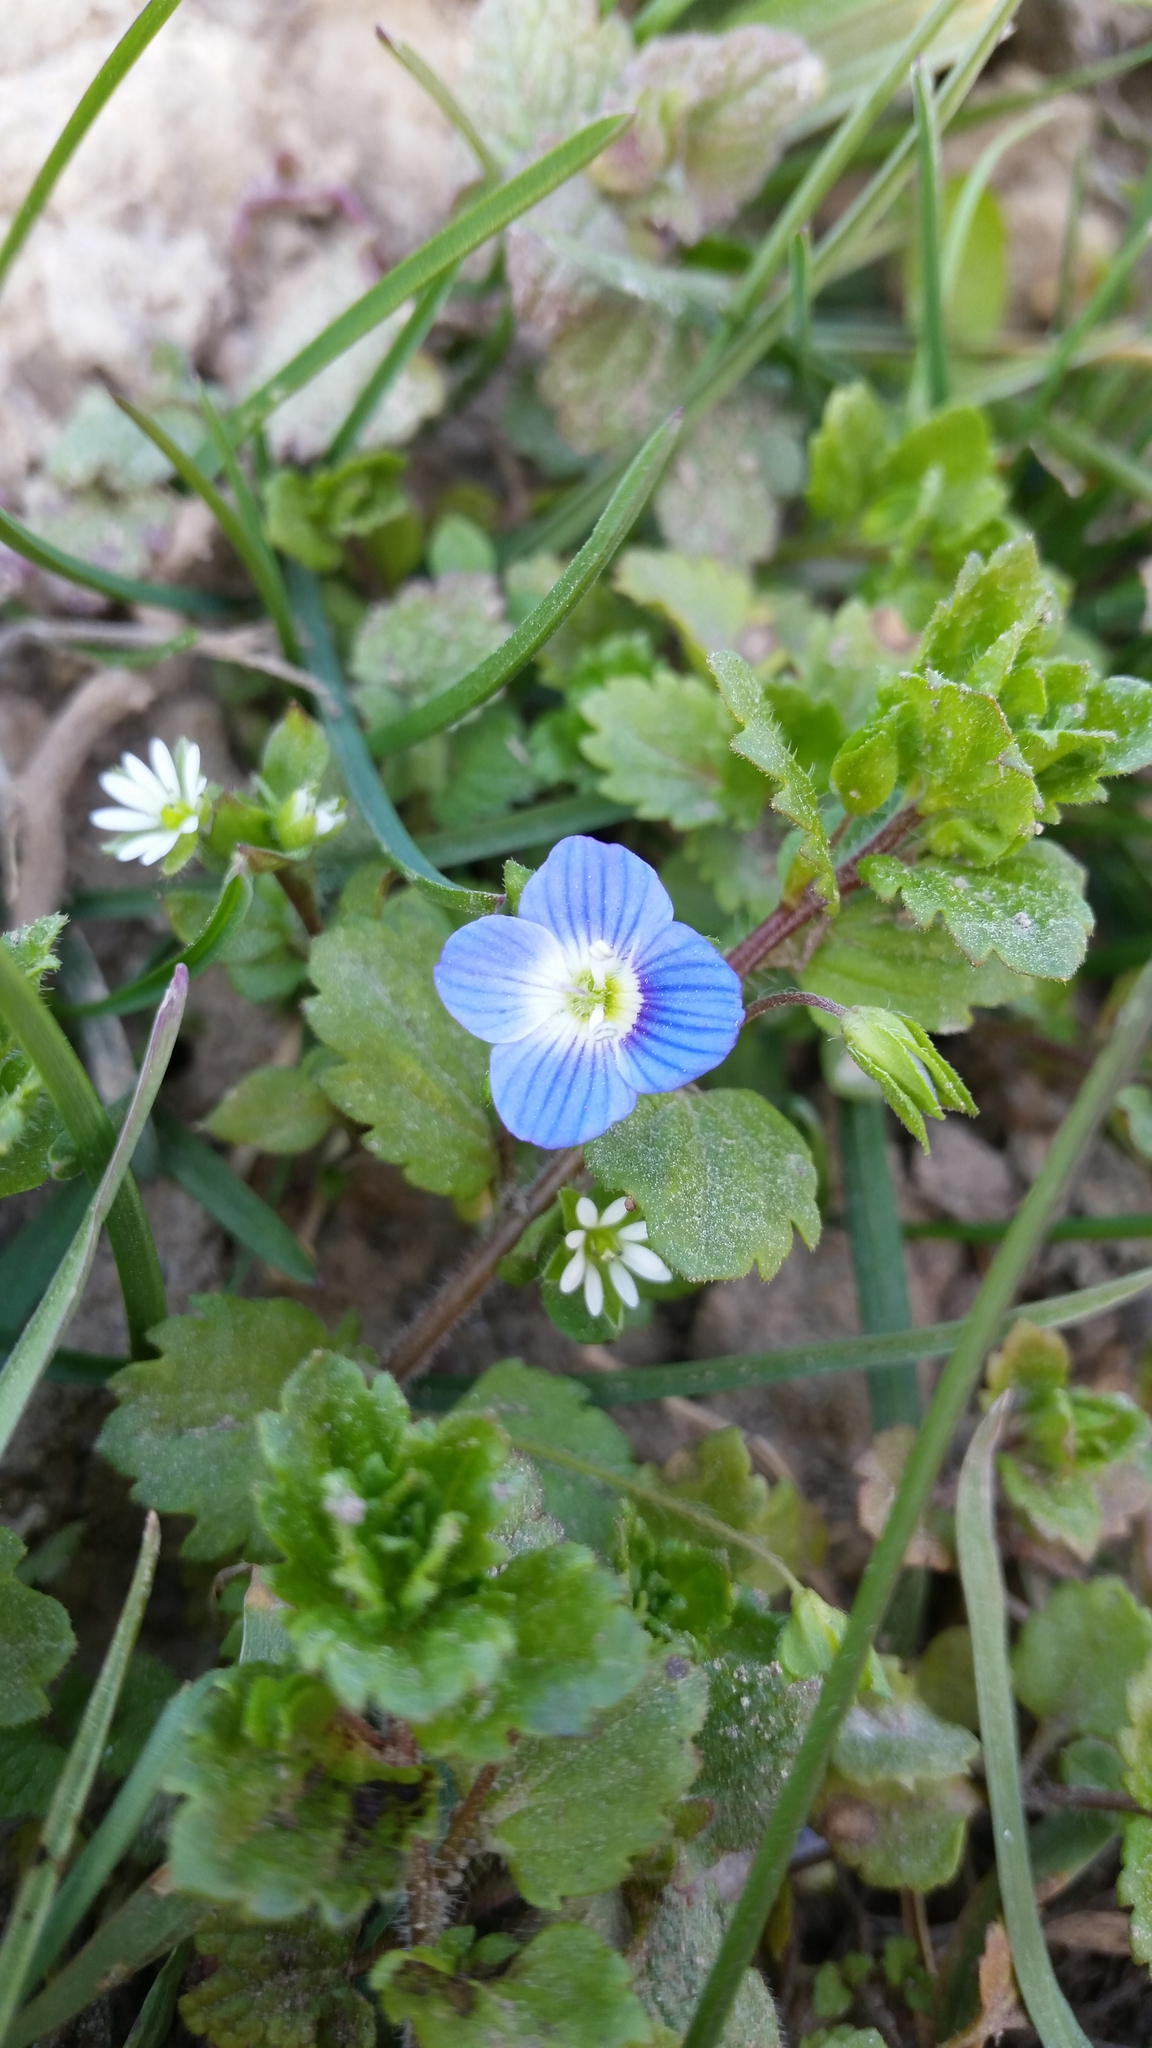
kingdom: Plantae
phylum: Tracheophyta
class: Magnoliopsida
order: Lamiales
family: Plantaginaceae
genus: Veronica
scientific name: Veronica persica
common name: Common field-speedwell
